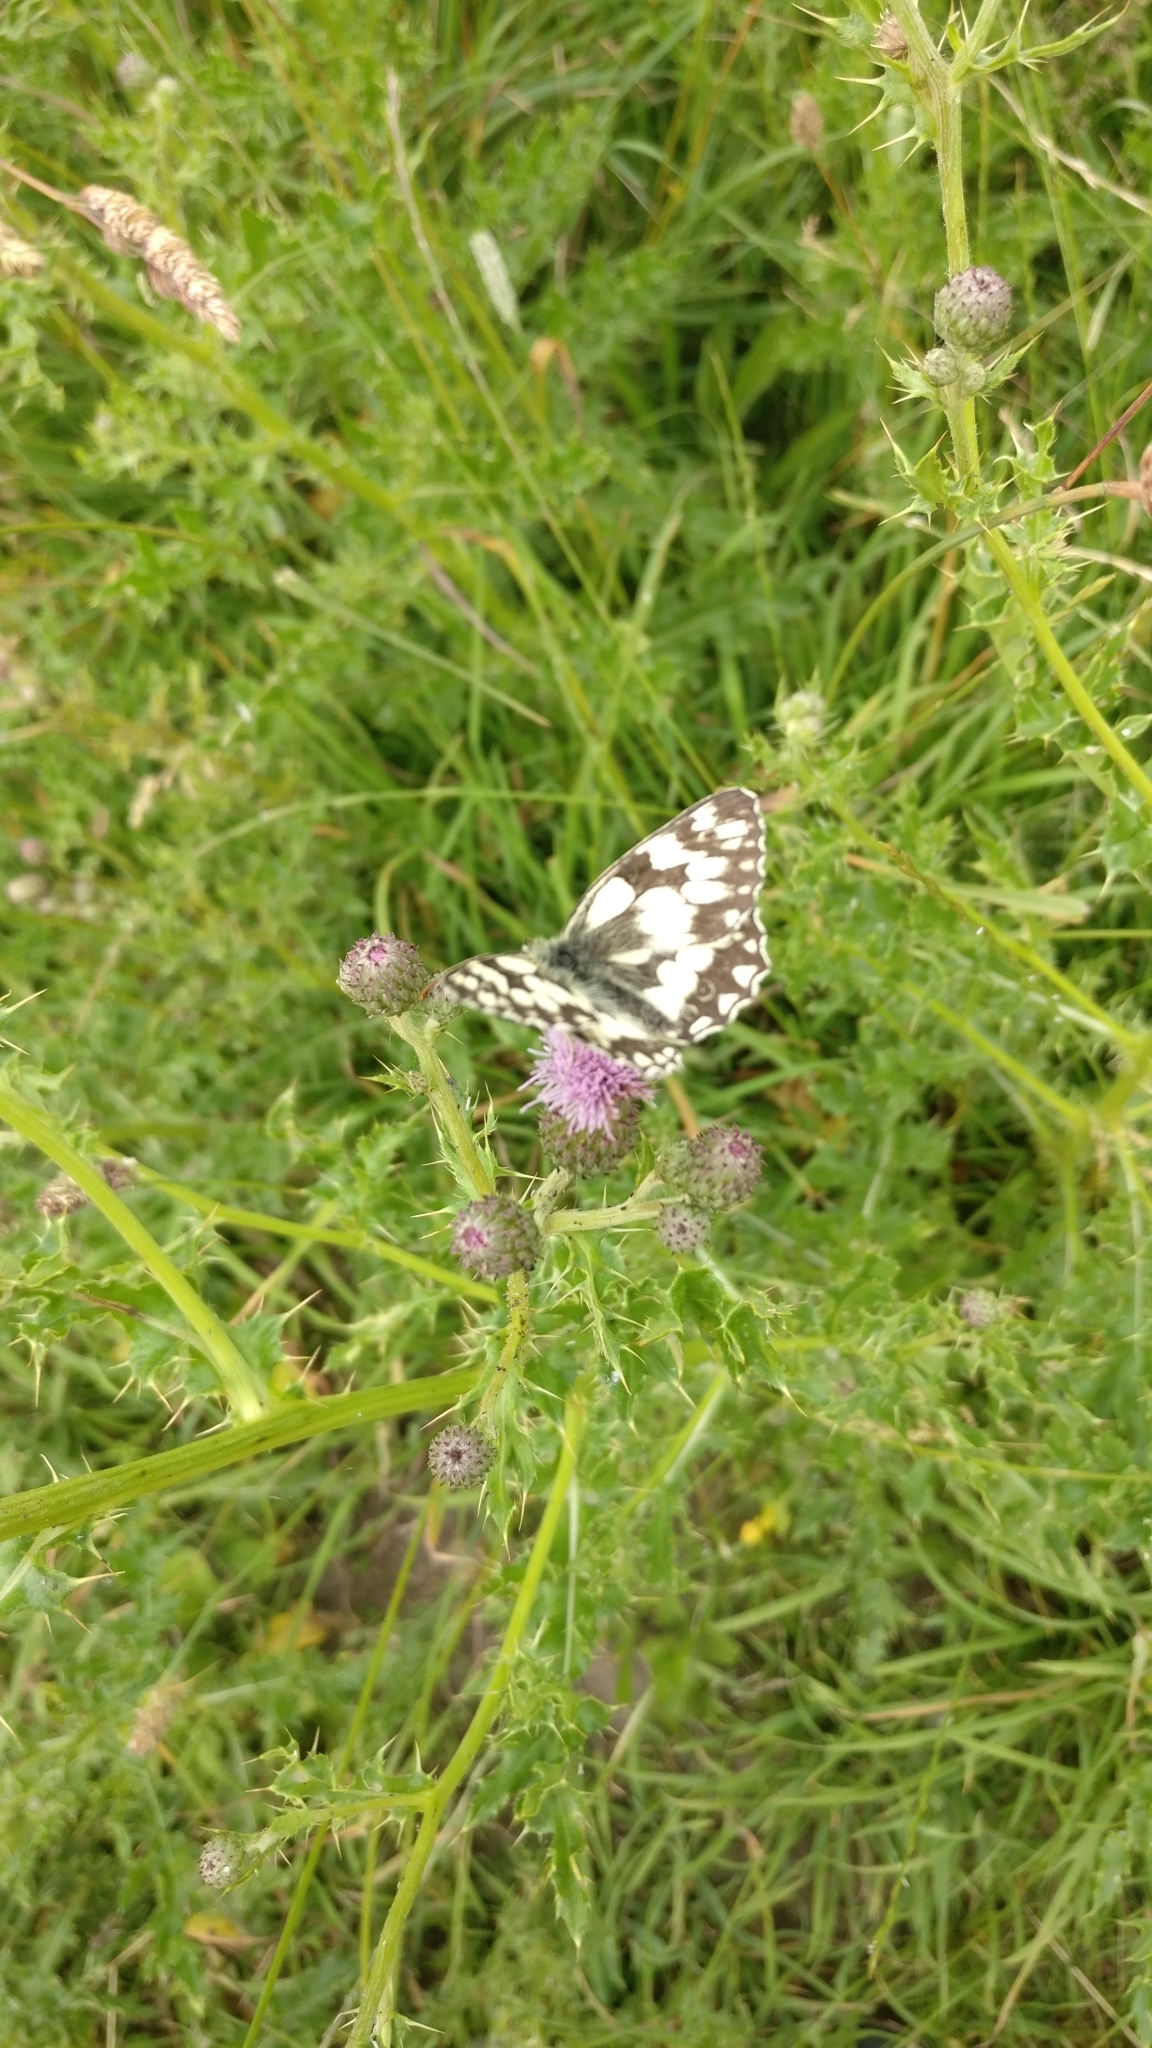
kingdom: Animalia
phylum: Arthropoda
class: Insecta
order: Lepidoptera
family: Nymphalidae
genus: Melanargia
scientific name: Melanargia galathea
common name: Marbled white
